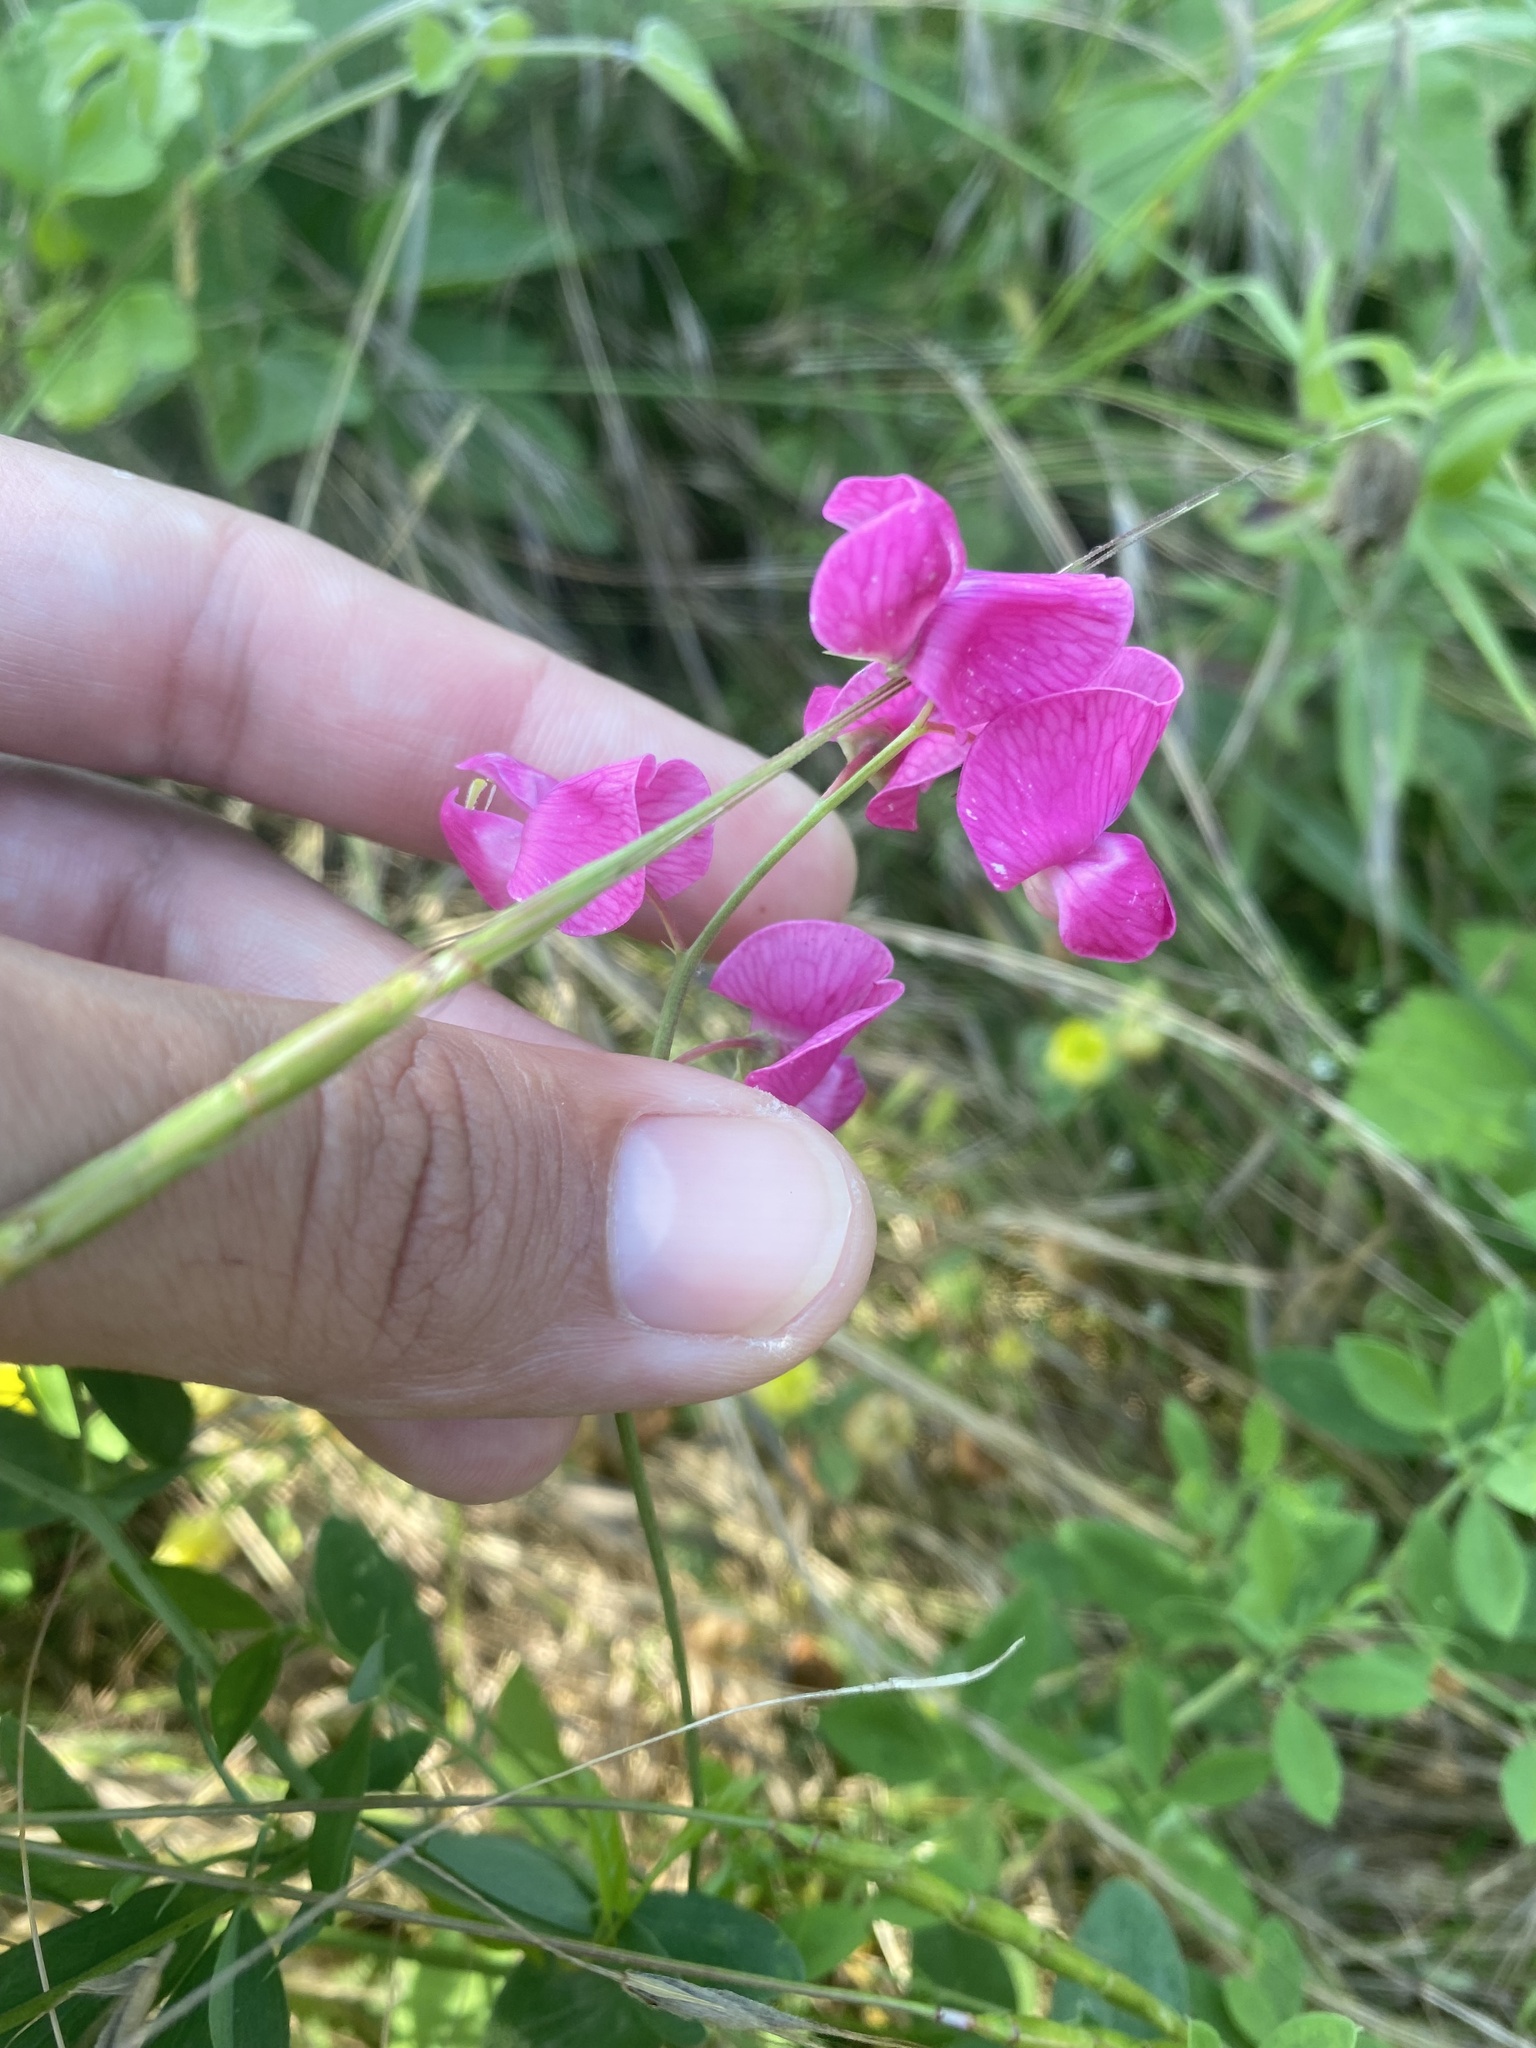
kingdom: Plantae
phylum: Tracheophyta
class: Magnoliopsida
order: Fabales
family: Fabaceae
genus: Lathyrus
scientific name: Lathyrus tuberosus
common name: Tuberous pea
